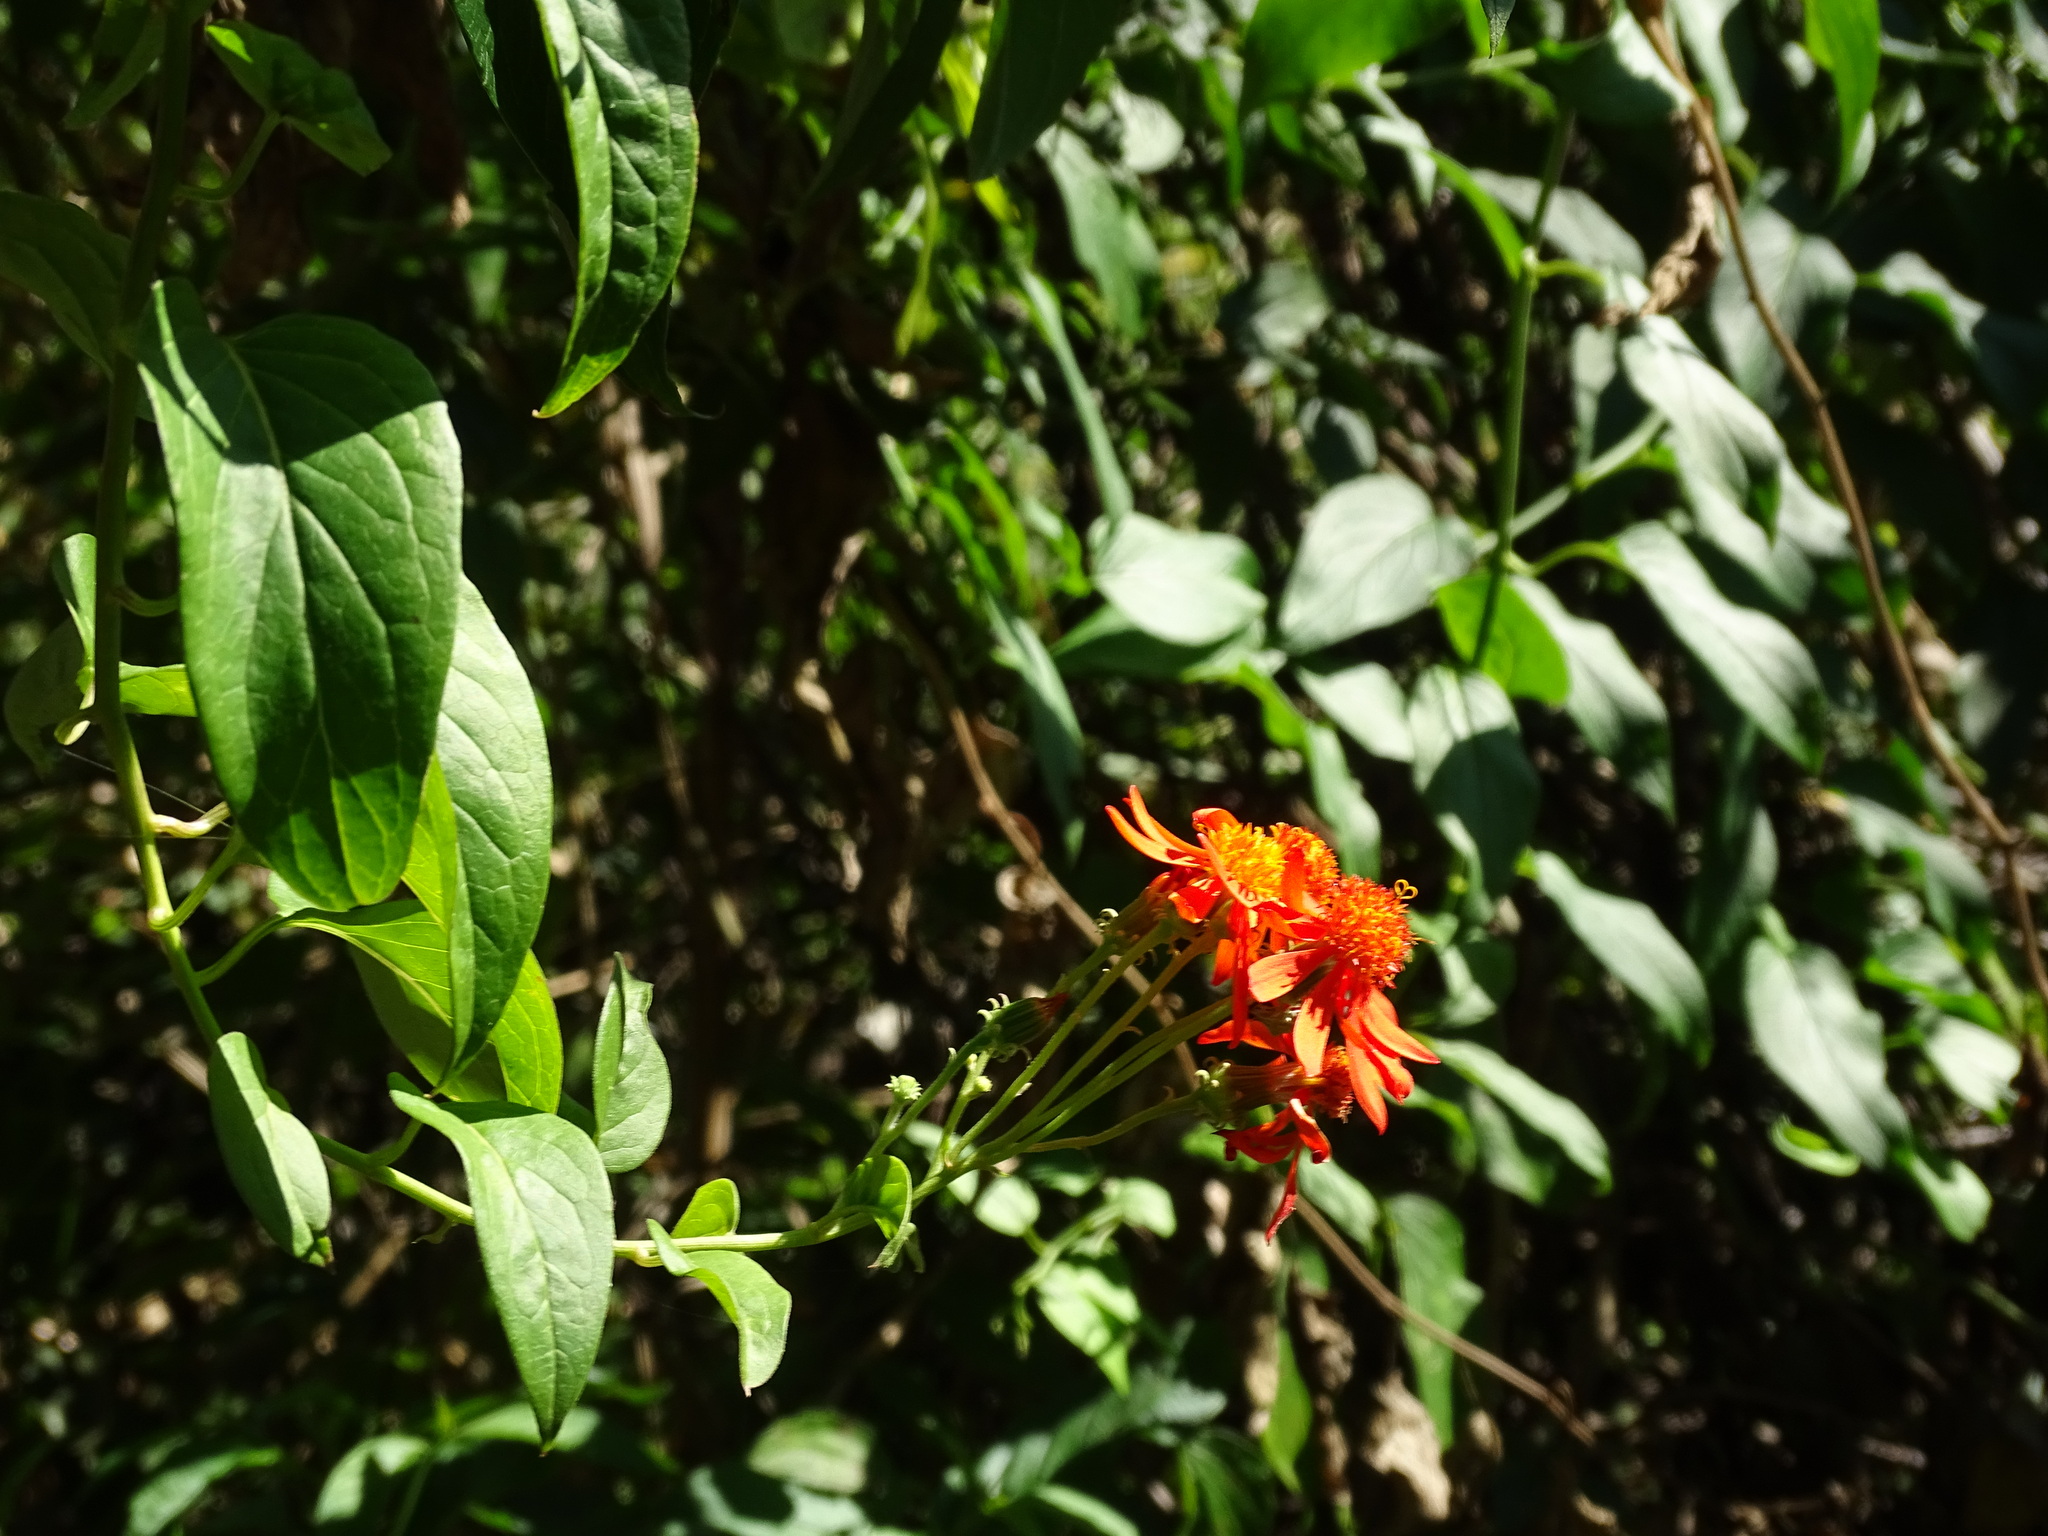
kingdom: Plantae
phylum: Tracheophyta
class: Magnoliopsida
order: Asterales
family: Asteraceae
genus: Pseudogynoxys
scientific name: Pseudogynoxys chenopodioides
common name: Mexican flamevine
